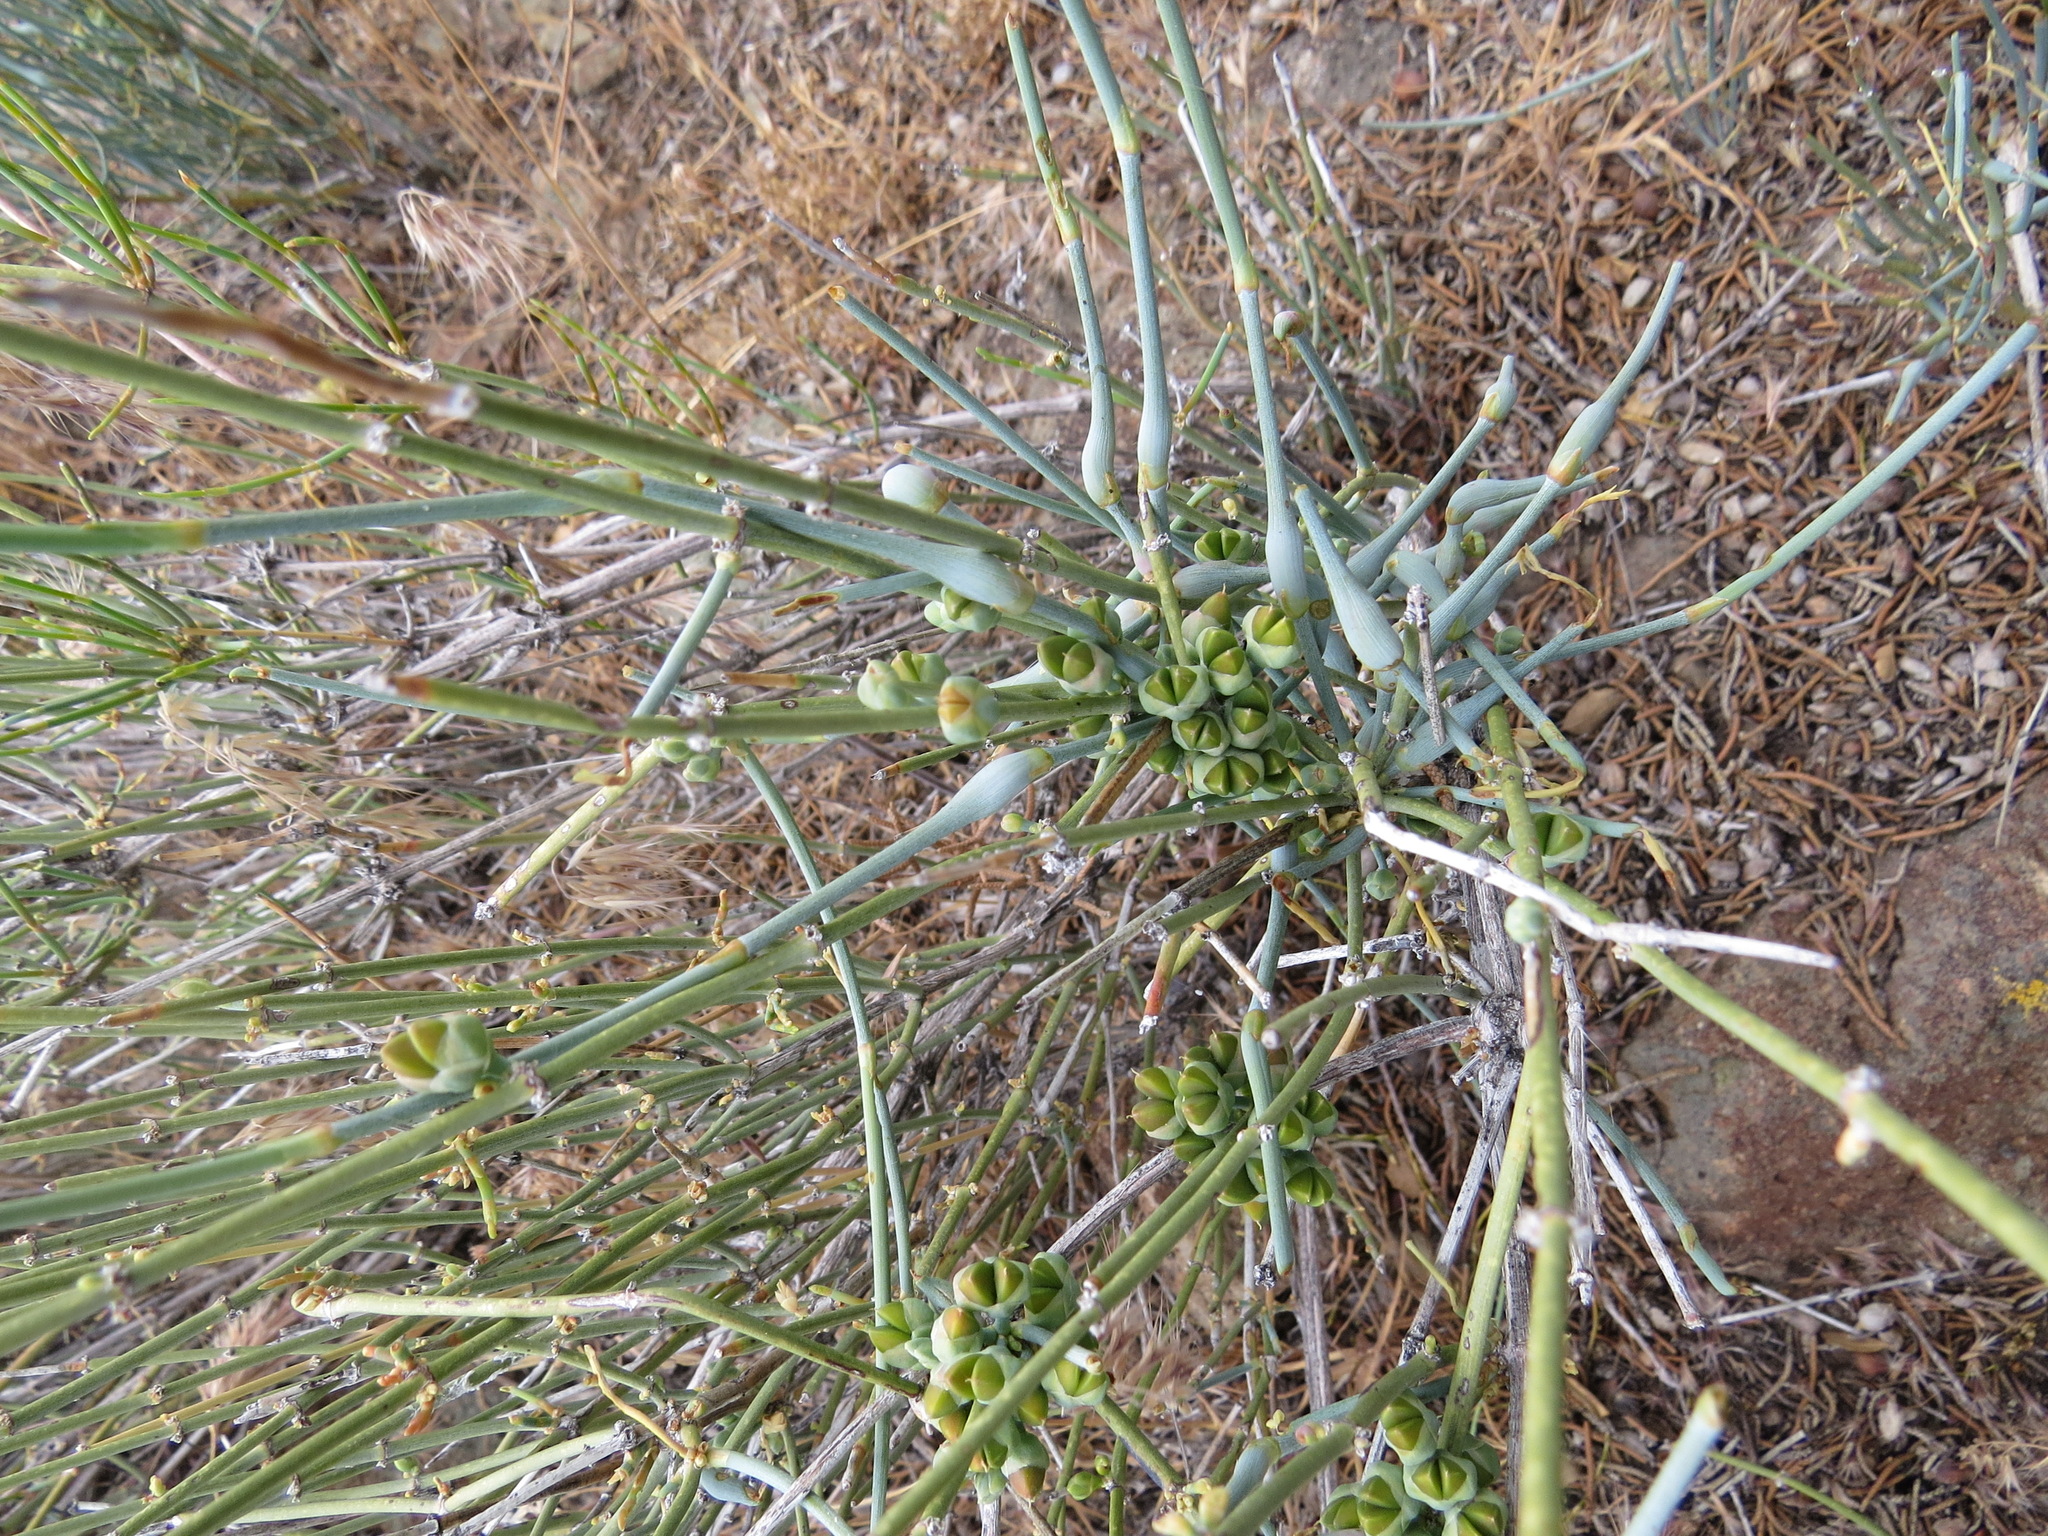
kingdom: Animalia
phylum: Arthropoda
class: Insecta
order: Diptera
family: Cecidomyiidae
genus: Lasioptera
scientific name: Lasioptera ephedrae
